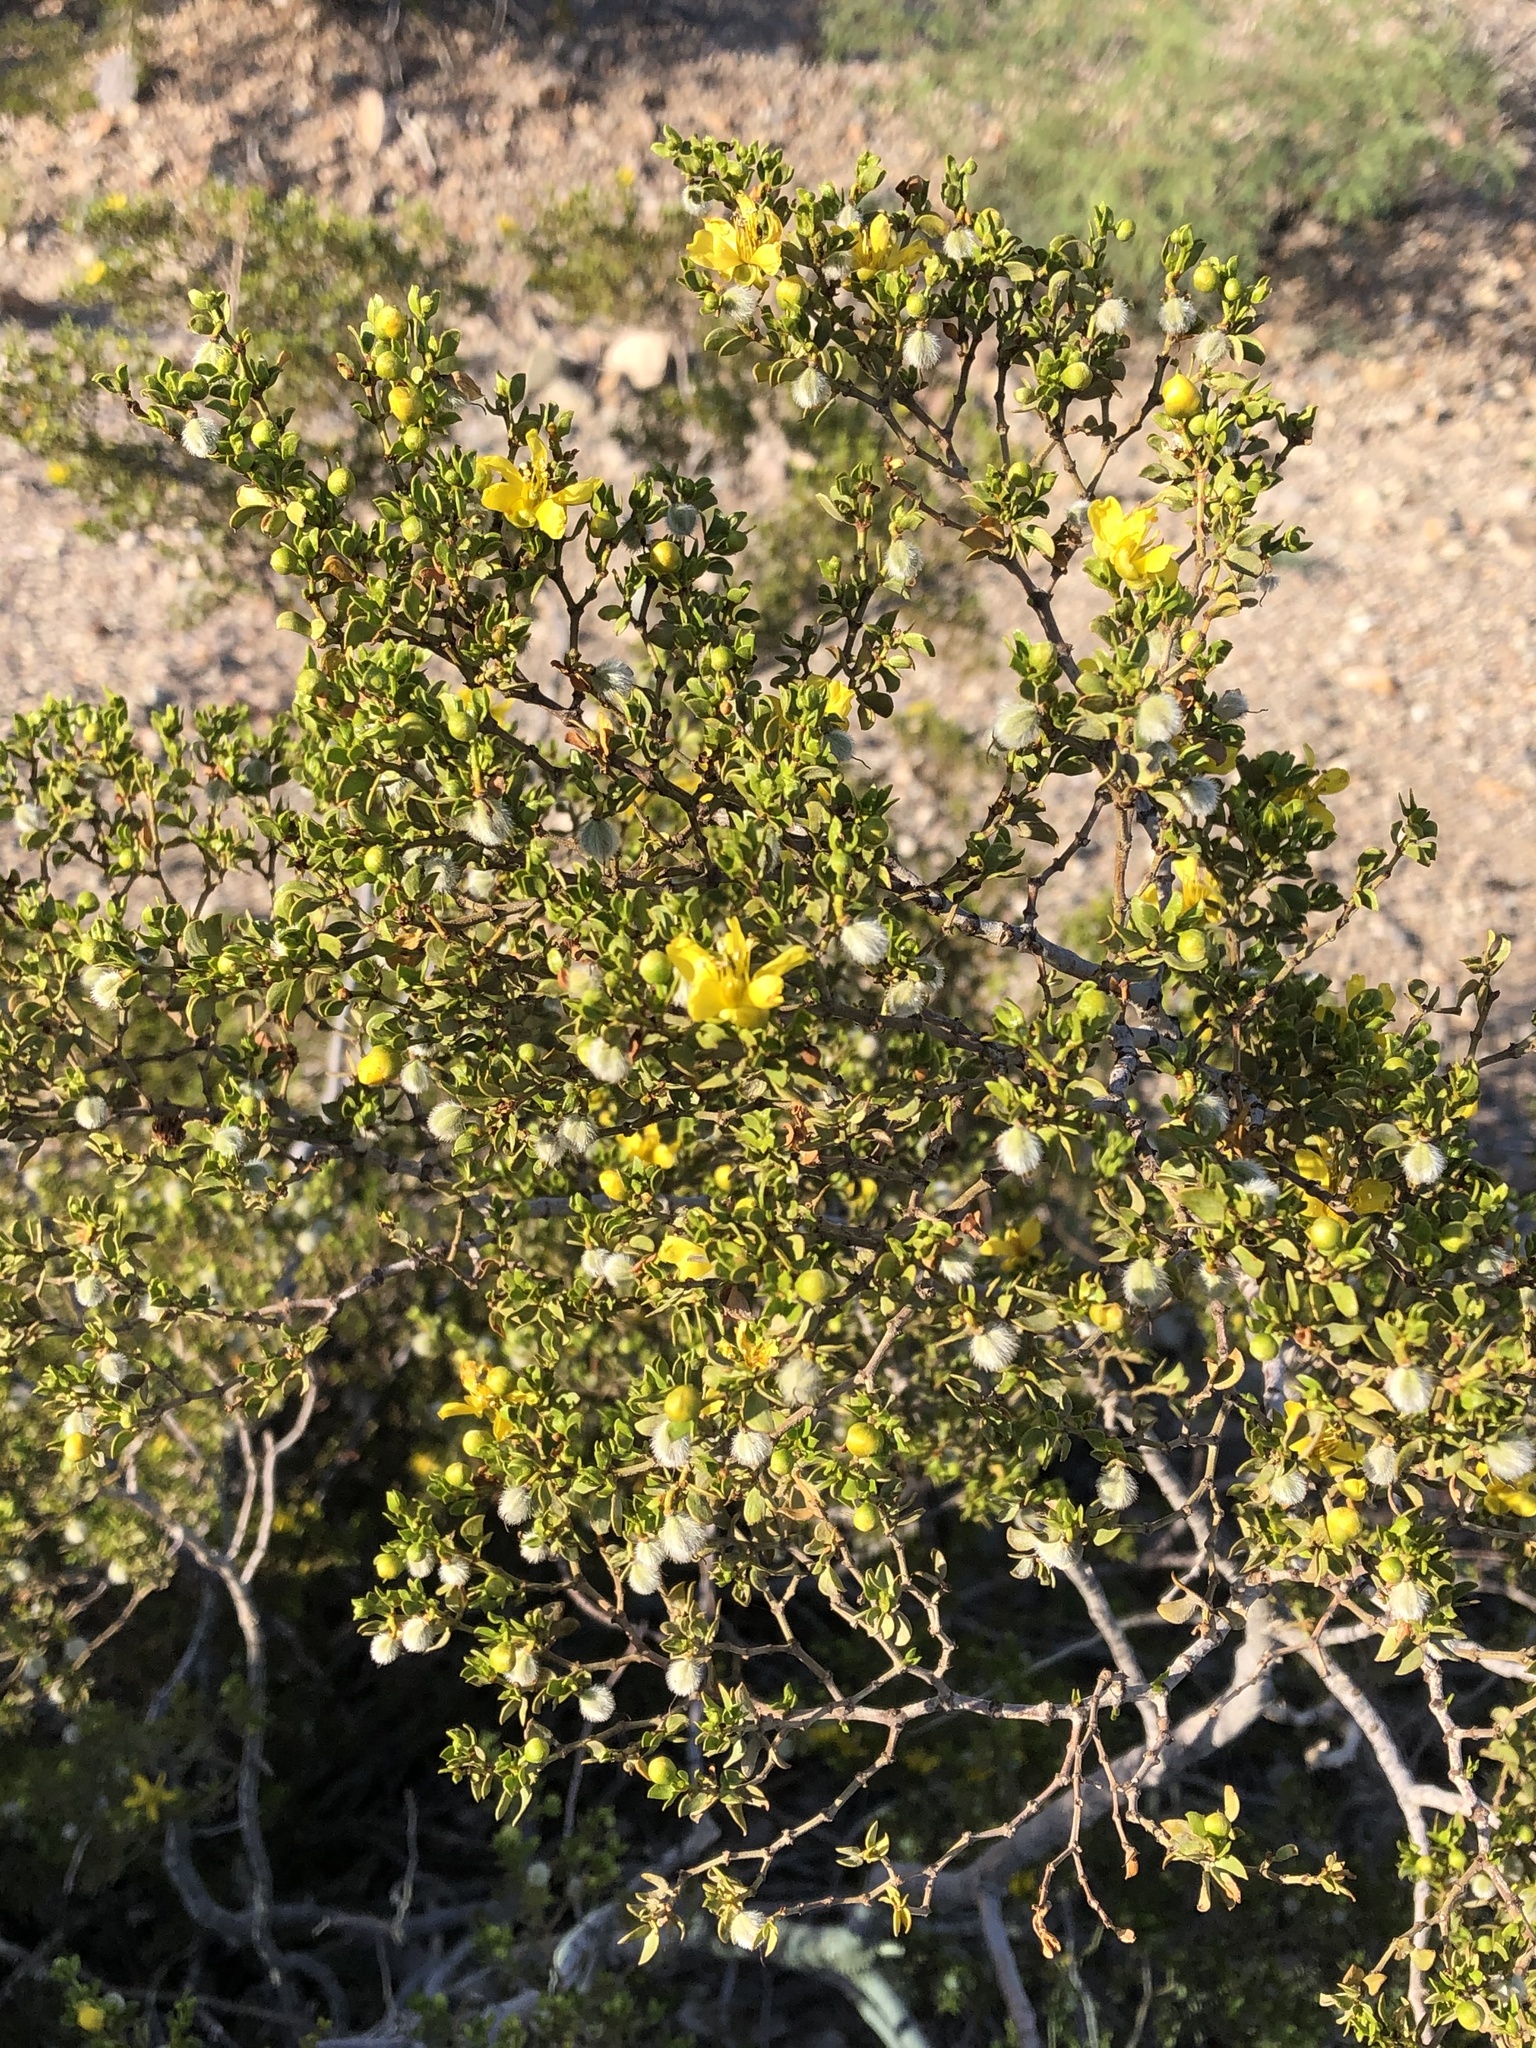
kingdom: Plantae
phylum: Tracheophyta
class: Magnoliopsida
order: Zygophyllales
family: Zygophyllaceae
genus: Larrea
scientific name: Larrea tridentata
